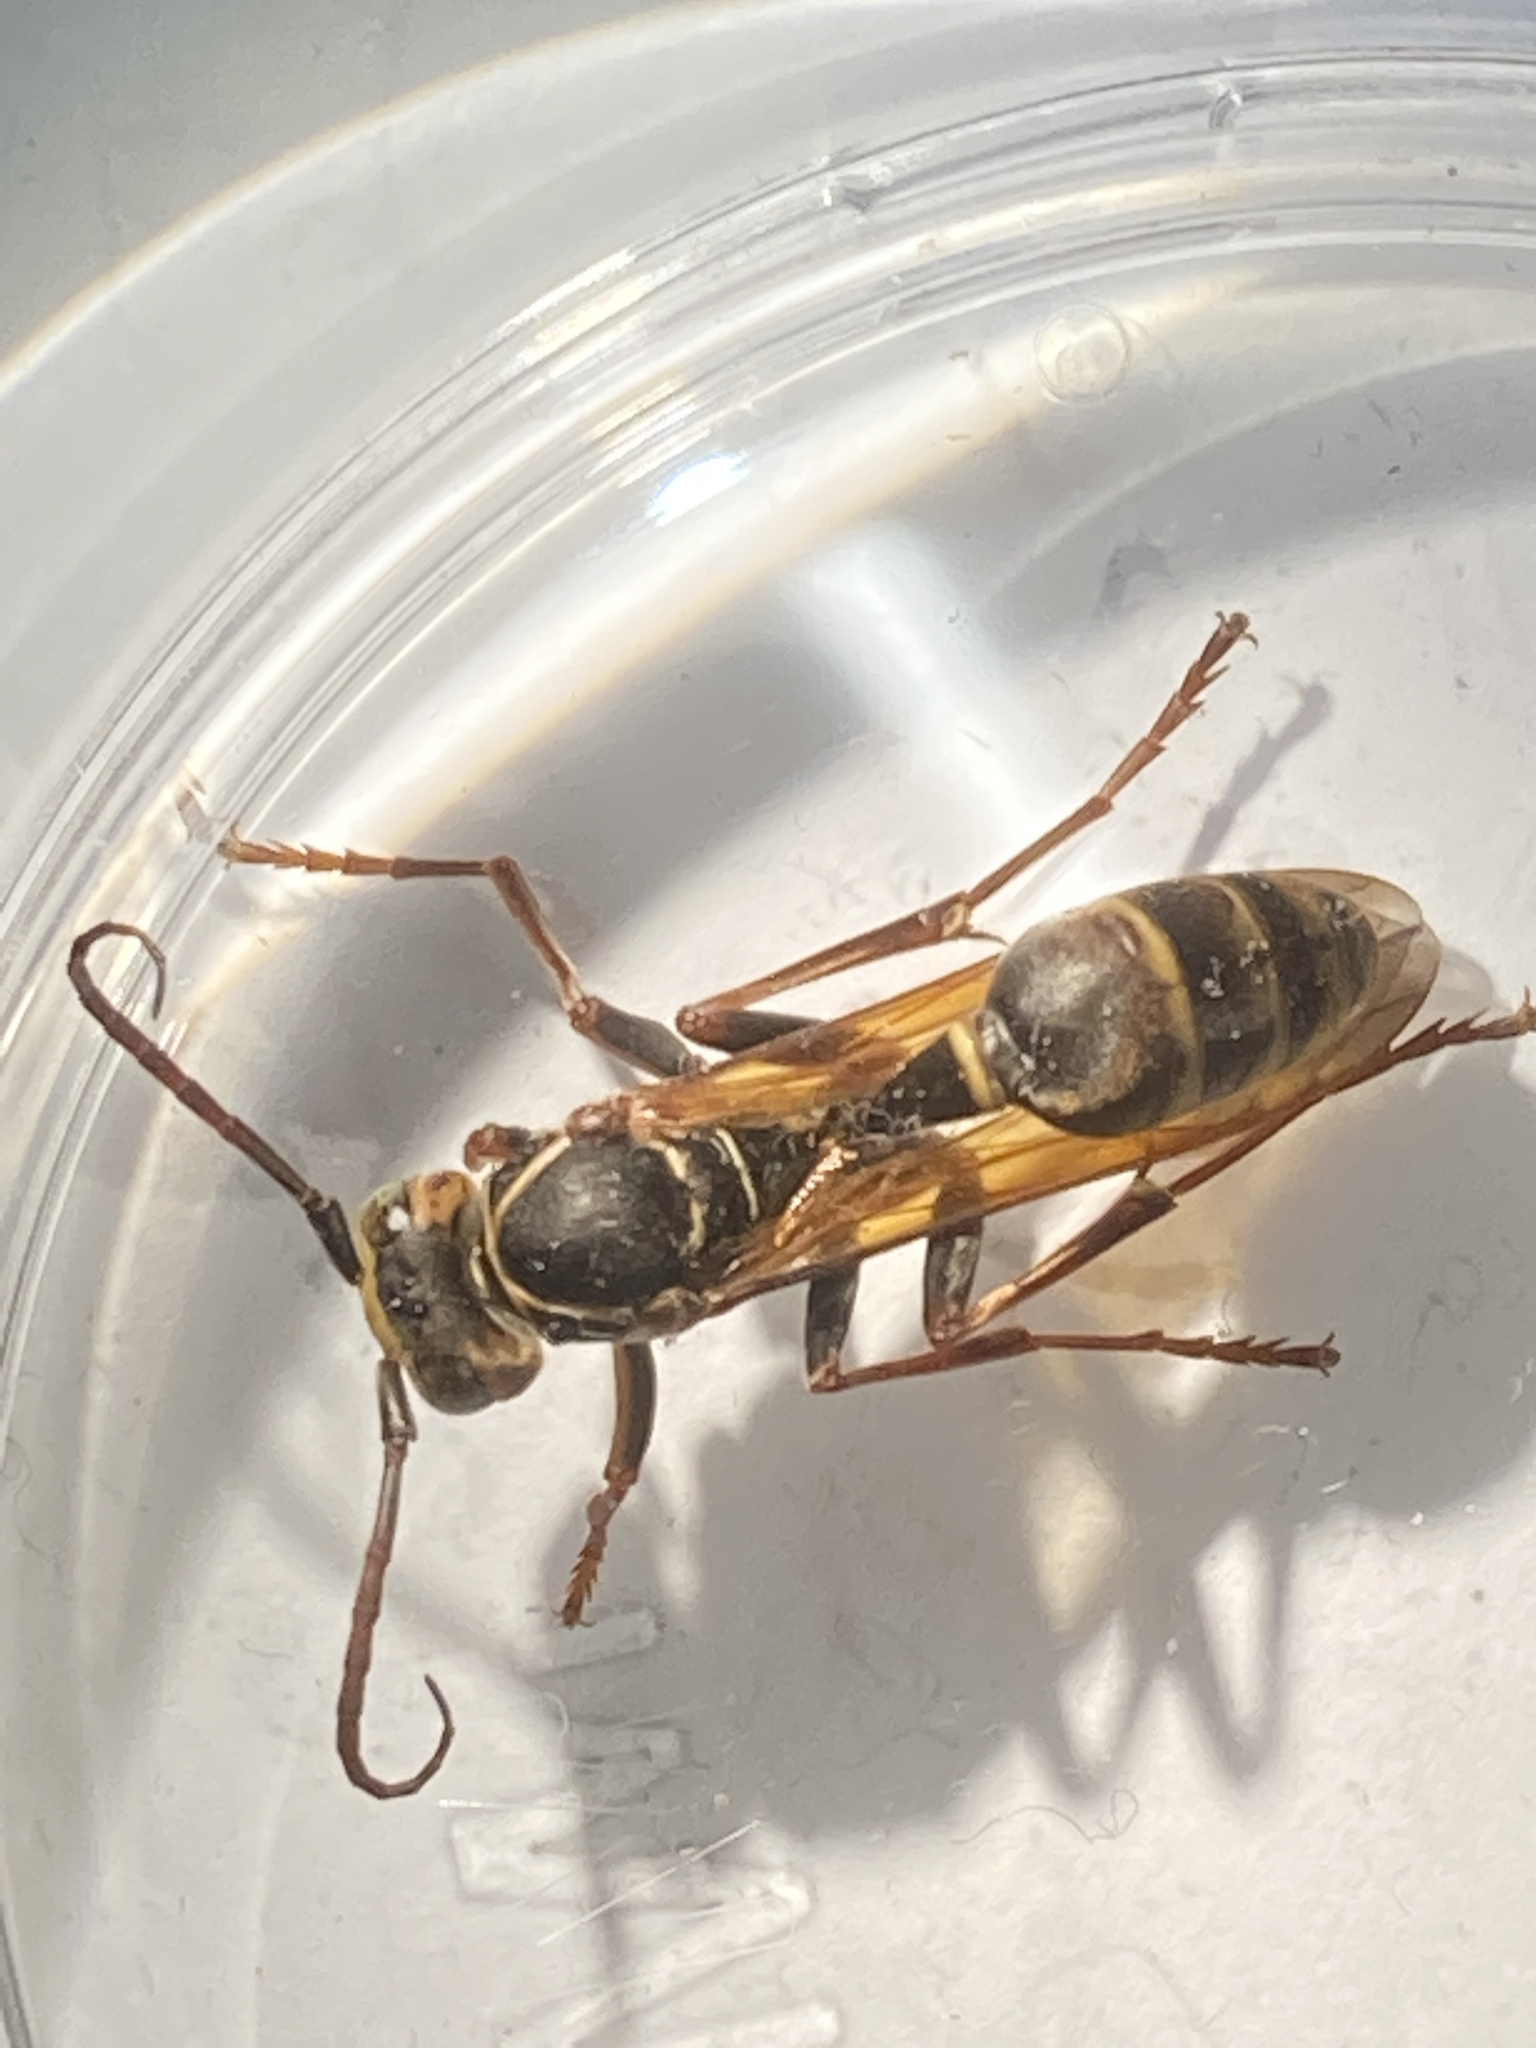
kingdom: Animalia
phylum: Arthropoda
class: Insecta
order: Hymenoptera
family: Vespidae
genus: Mischocyttarus
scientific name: Mischocyttarus flavitarsis
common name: Wasp
